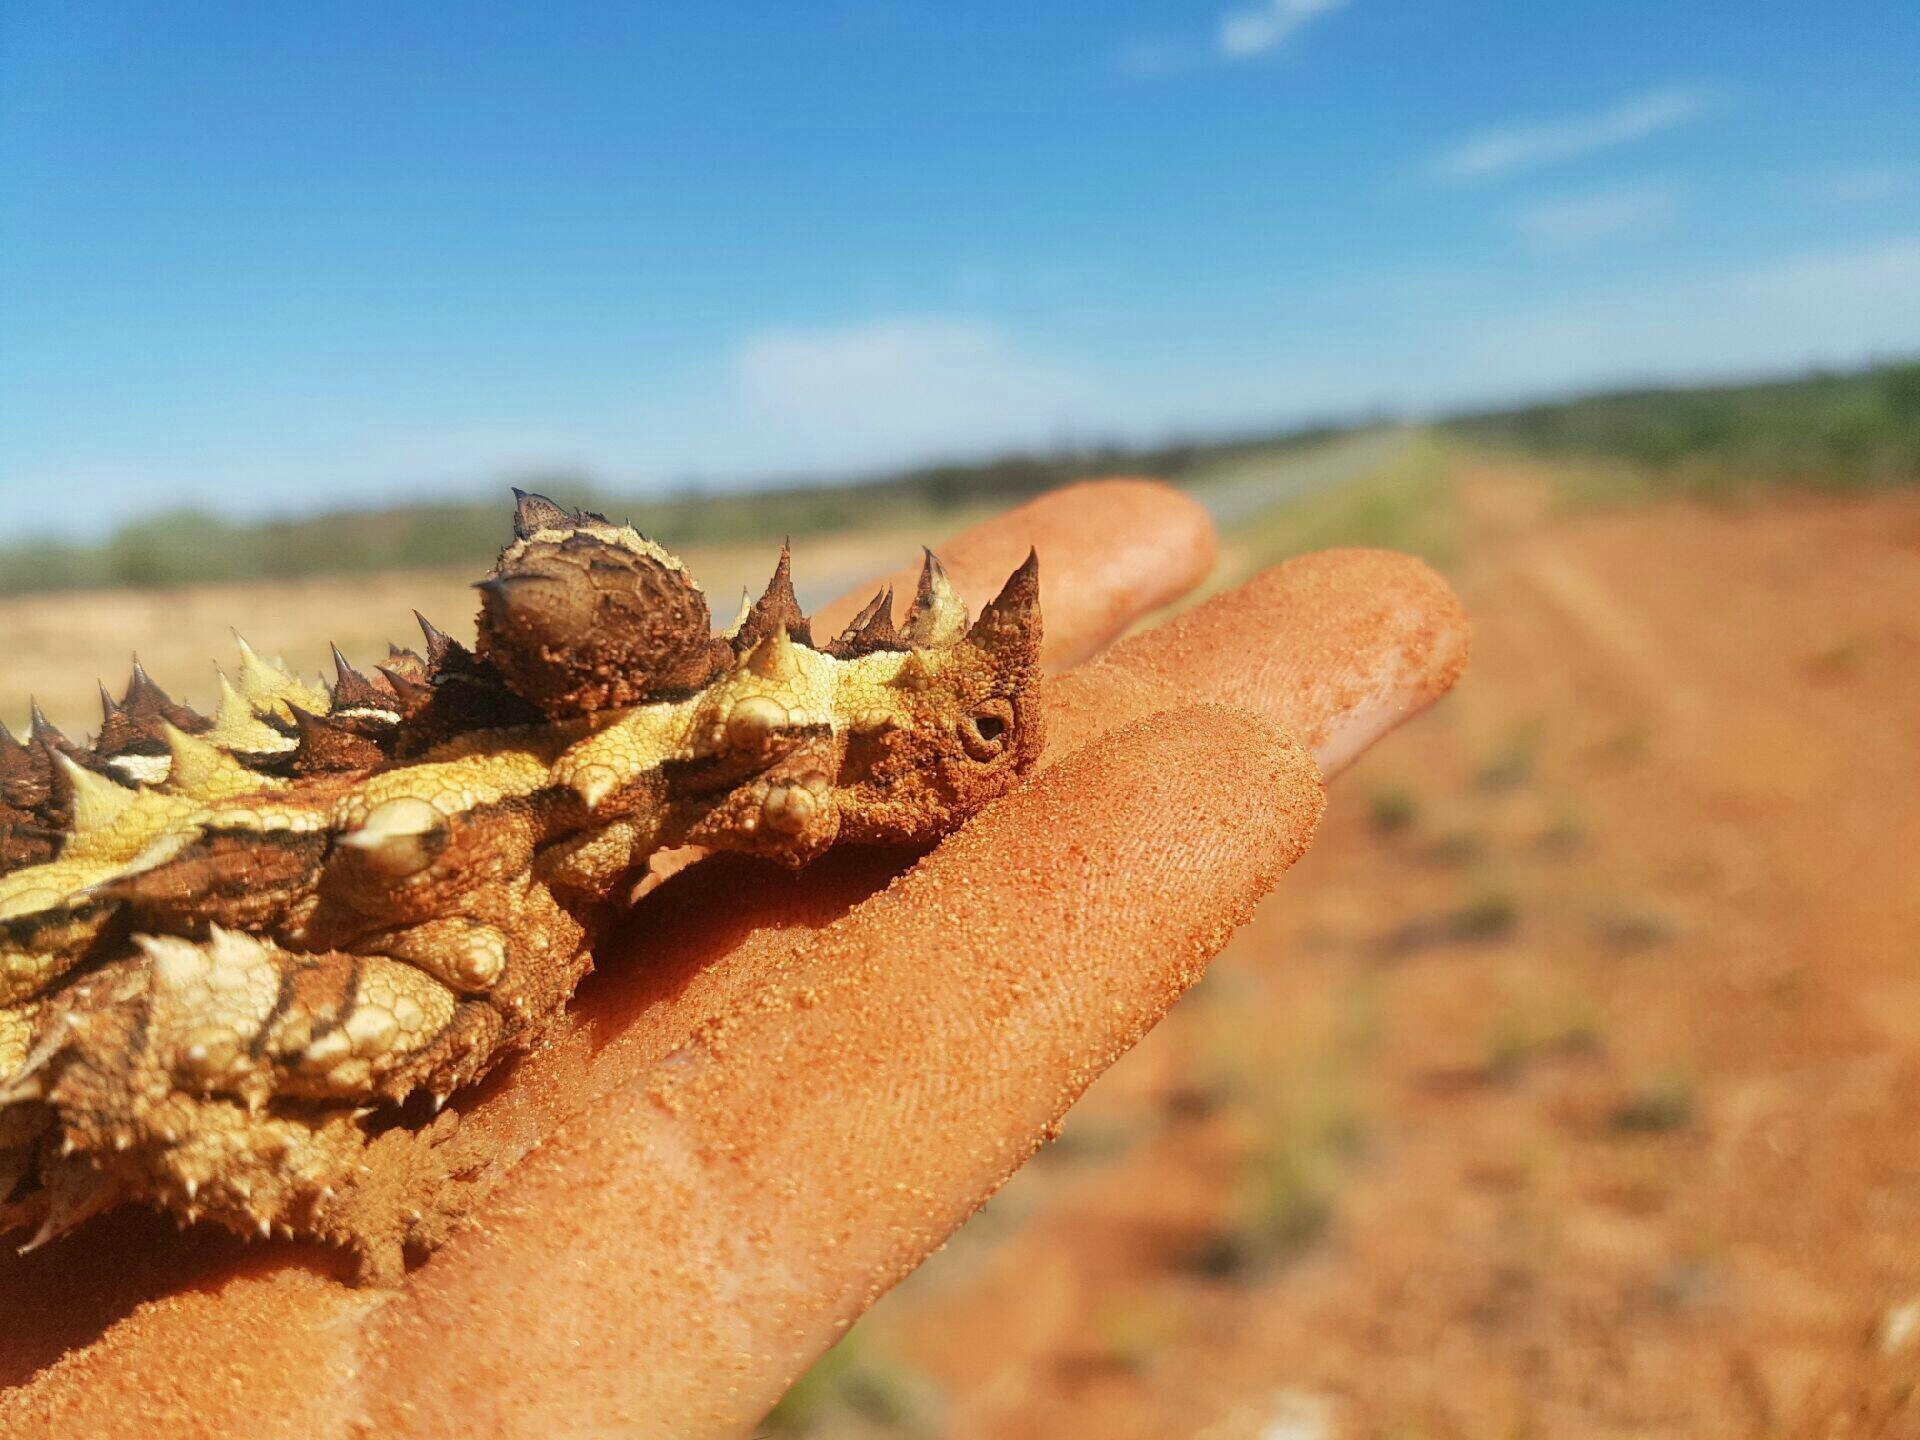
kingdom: Animalia
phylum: Chordata
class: Squamata
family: Agamidae
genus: Moloch
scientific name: Moloch horridus
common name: Mountain devil
